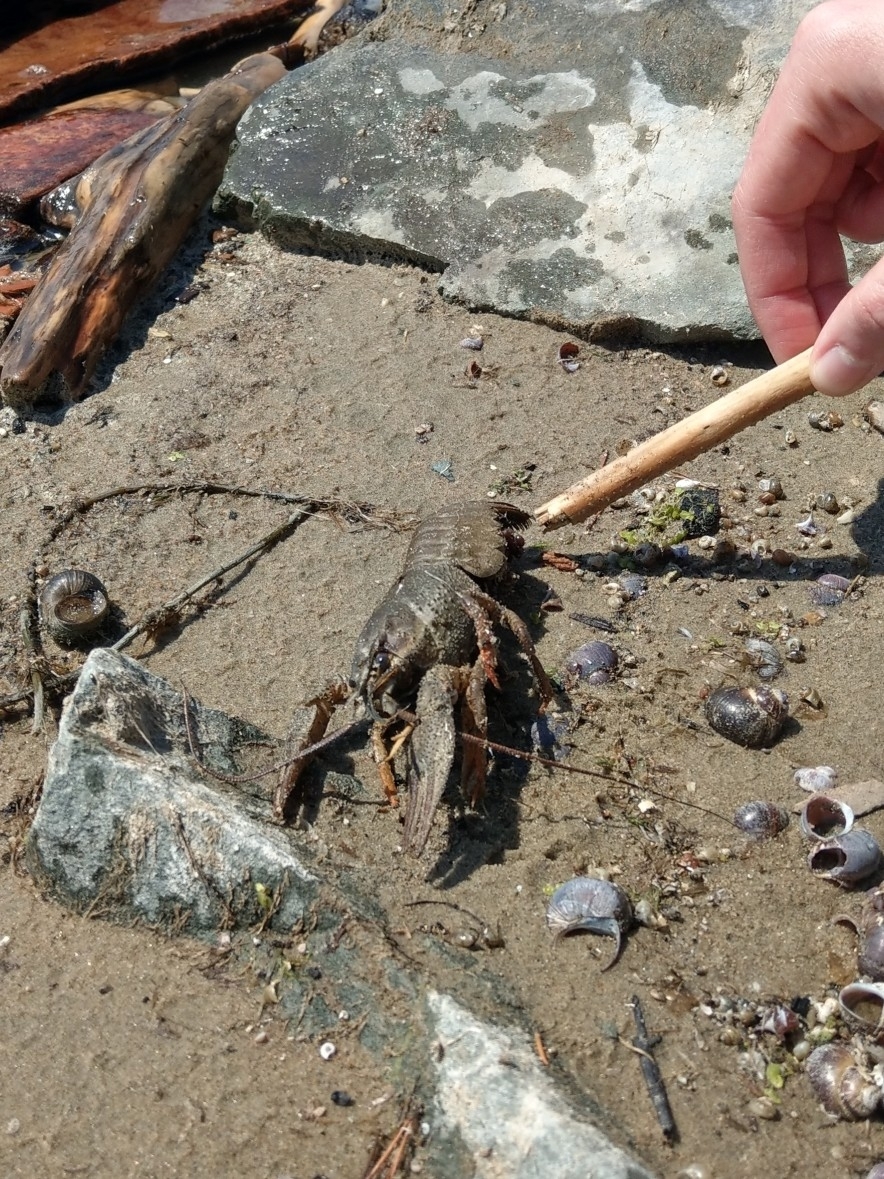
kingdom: Animalia
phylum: Arthropoda
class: Malacostraca
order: Decapoda
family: Astacidae
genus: Pontastacus
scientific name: Pontastacus leptodactylus
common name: Danube crayfish
